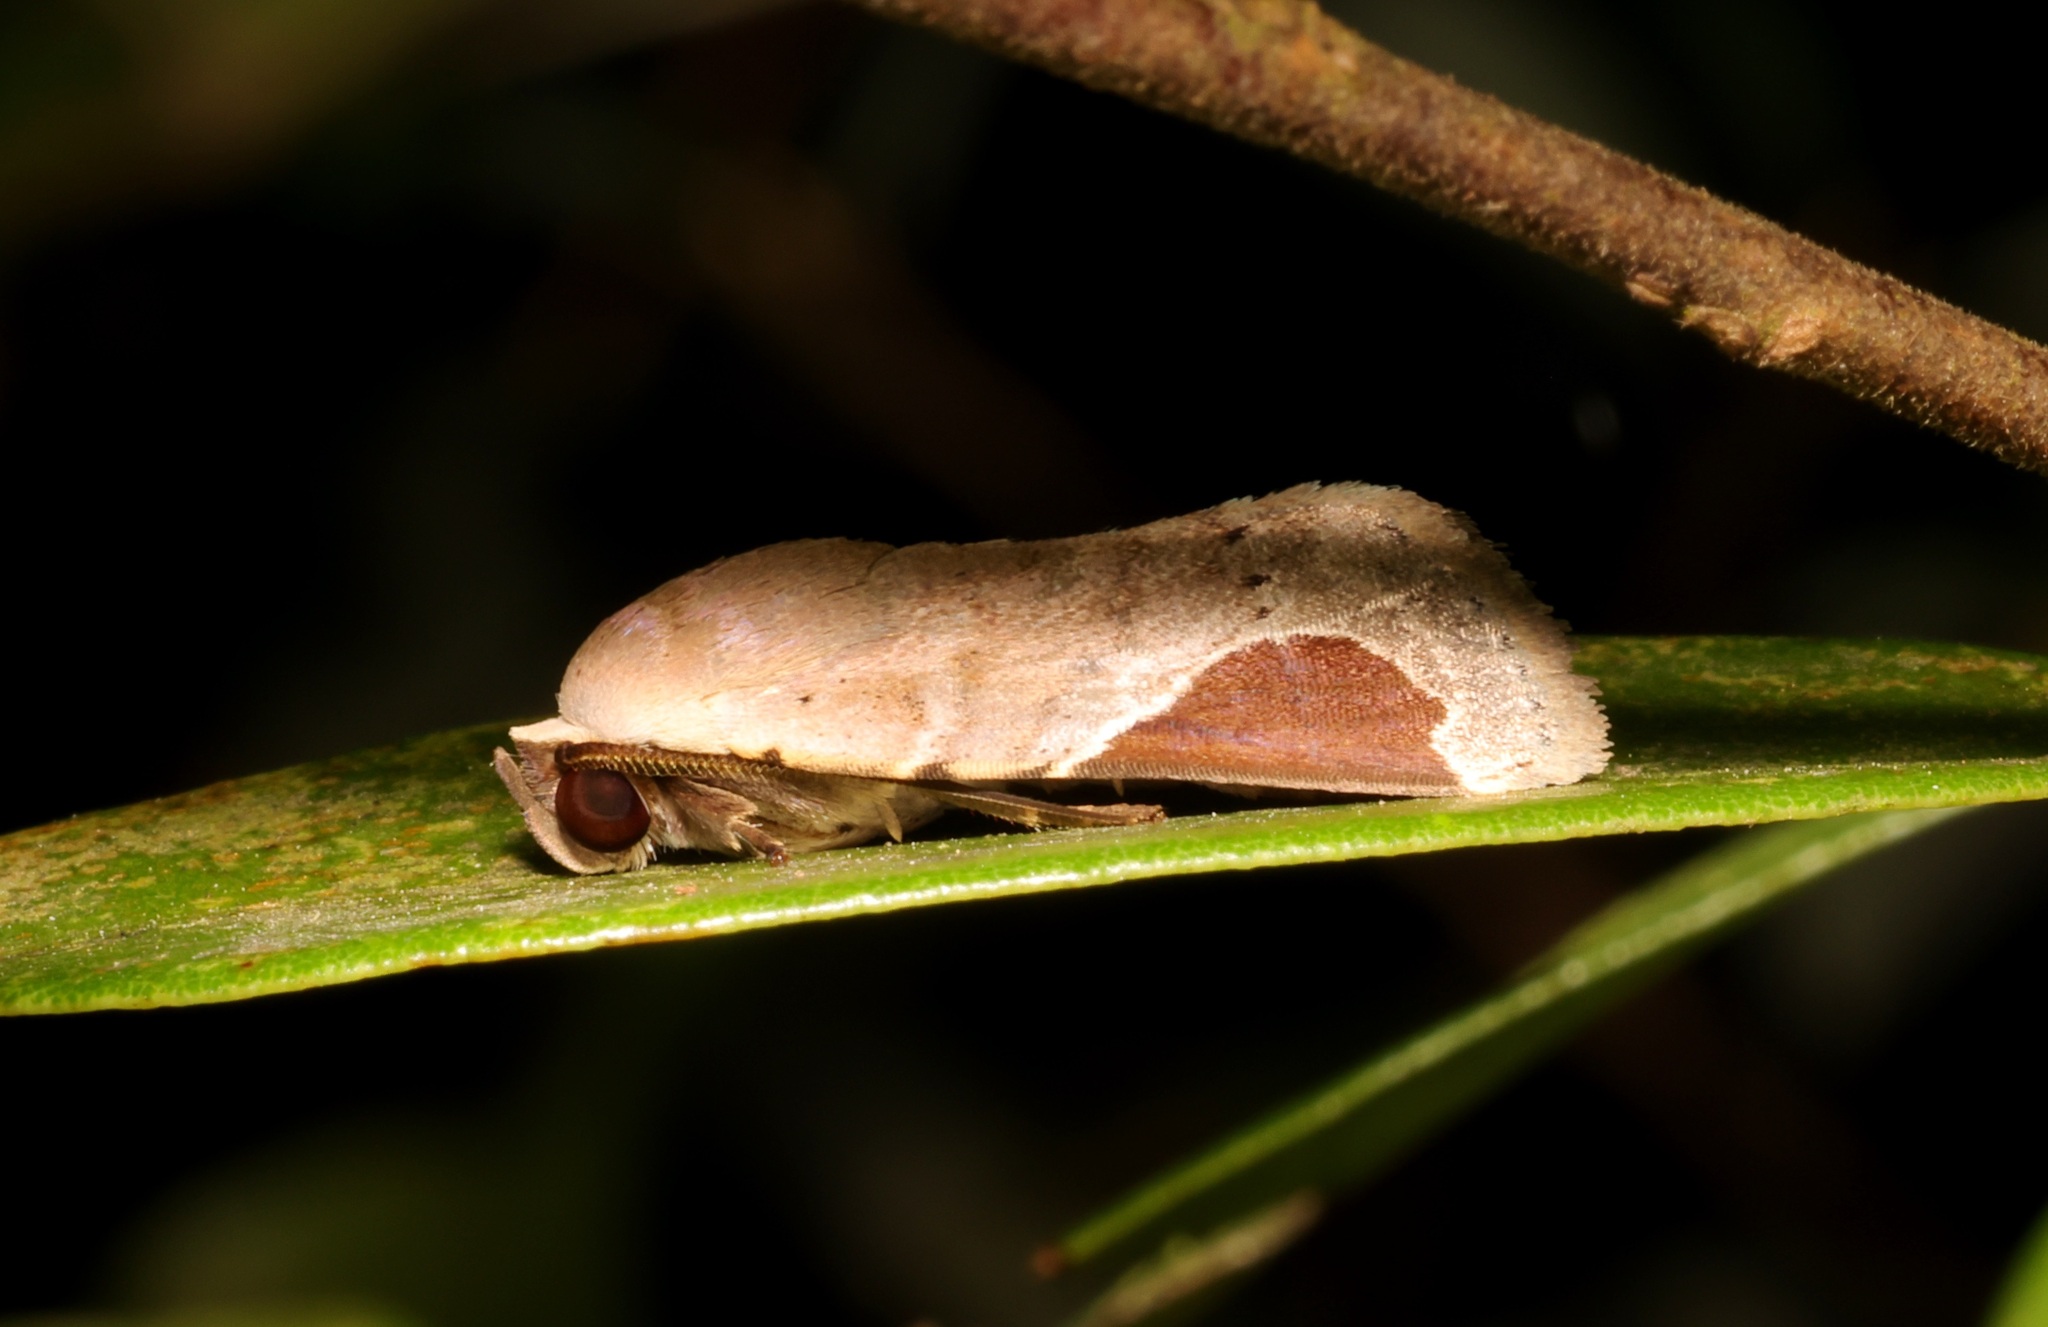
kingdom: Animalia
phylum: Arthropoda
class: Insecta
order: Lepidoptera
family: Noctuidae
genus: Dyrzela
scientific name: Dyrzela plagiata
